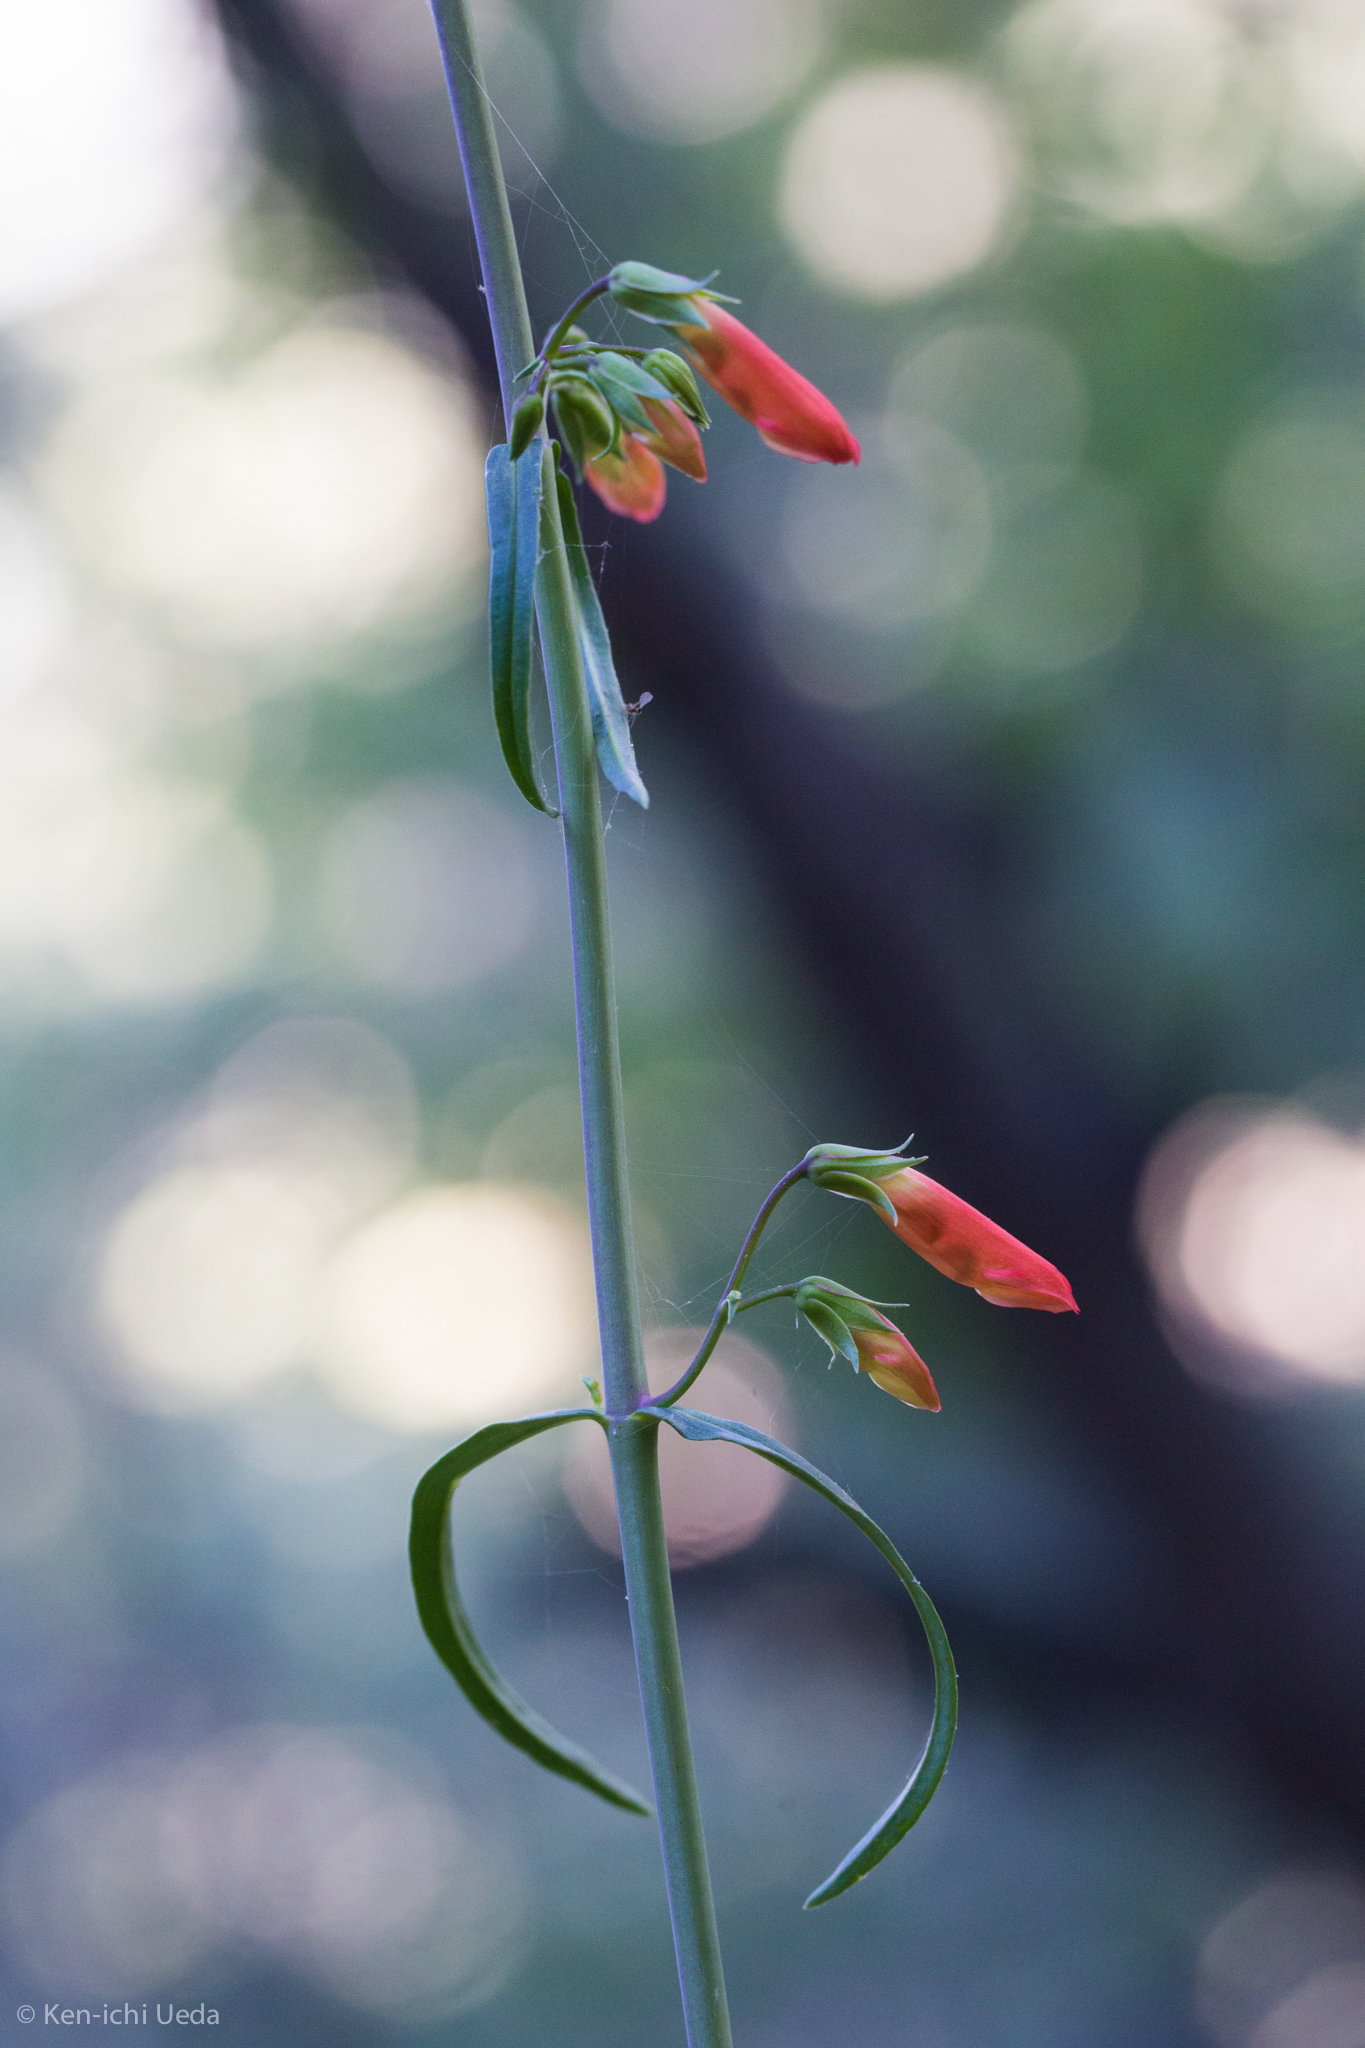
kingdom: Plantae
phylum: Tracheophyta
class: Magnoliopsida
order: Lamiales
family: Plantaginaceae
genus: Penstemon
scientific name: Penstemon barbatus
